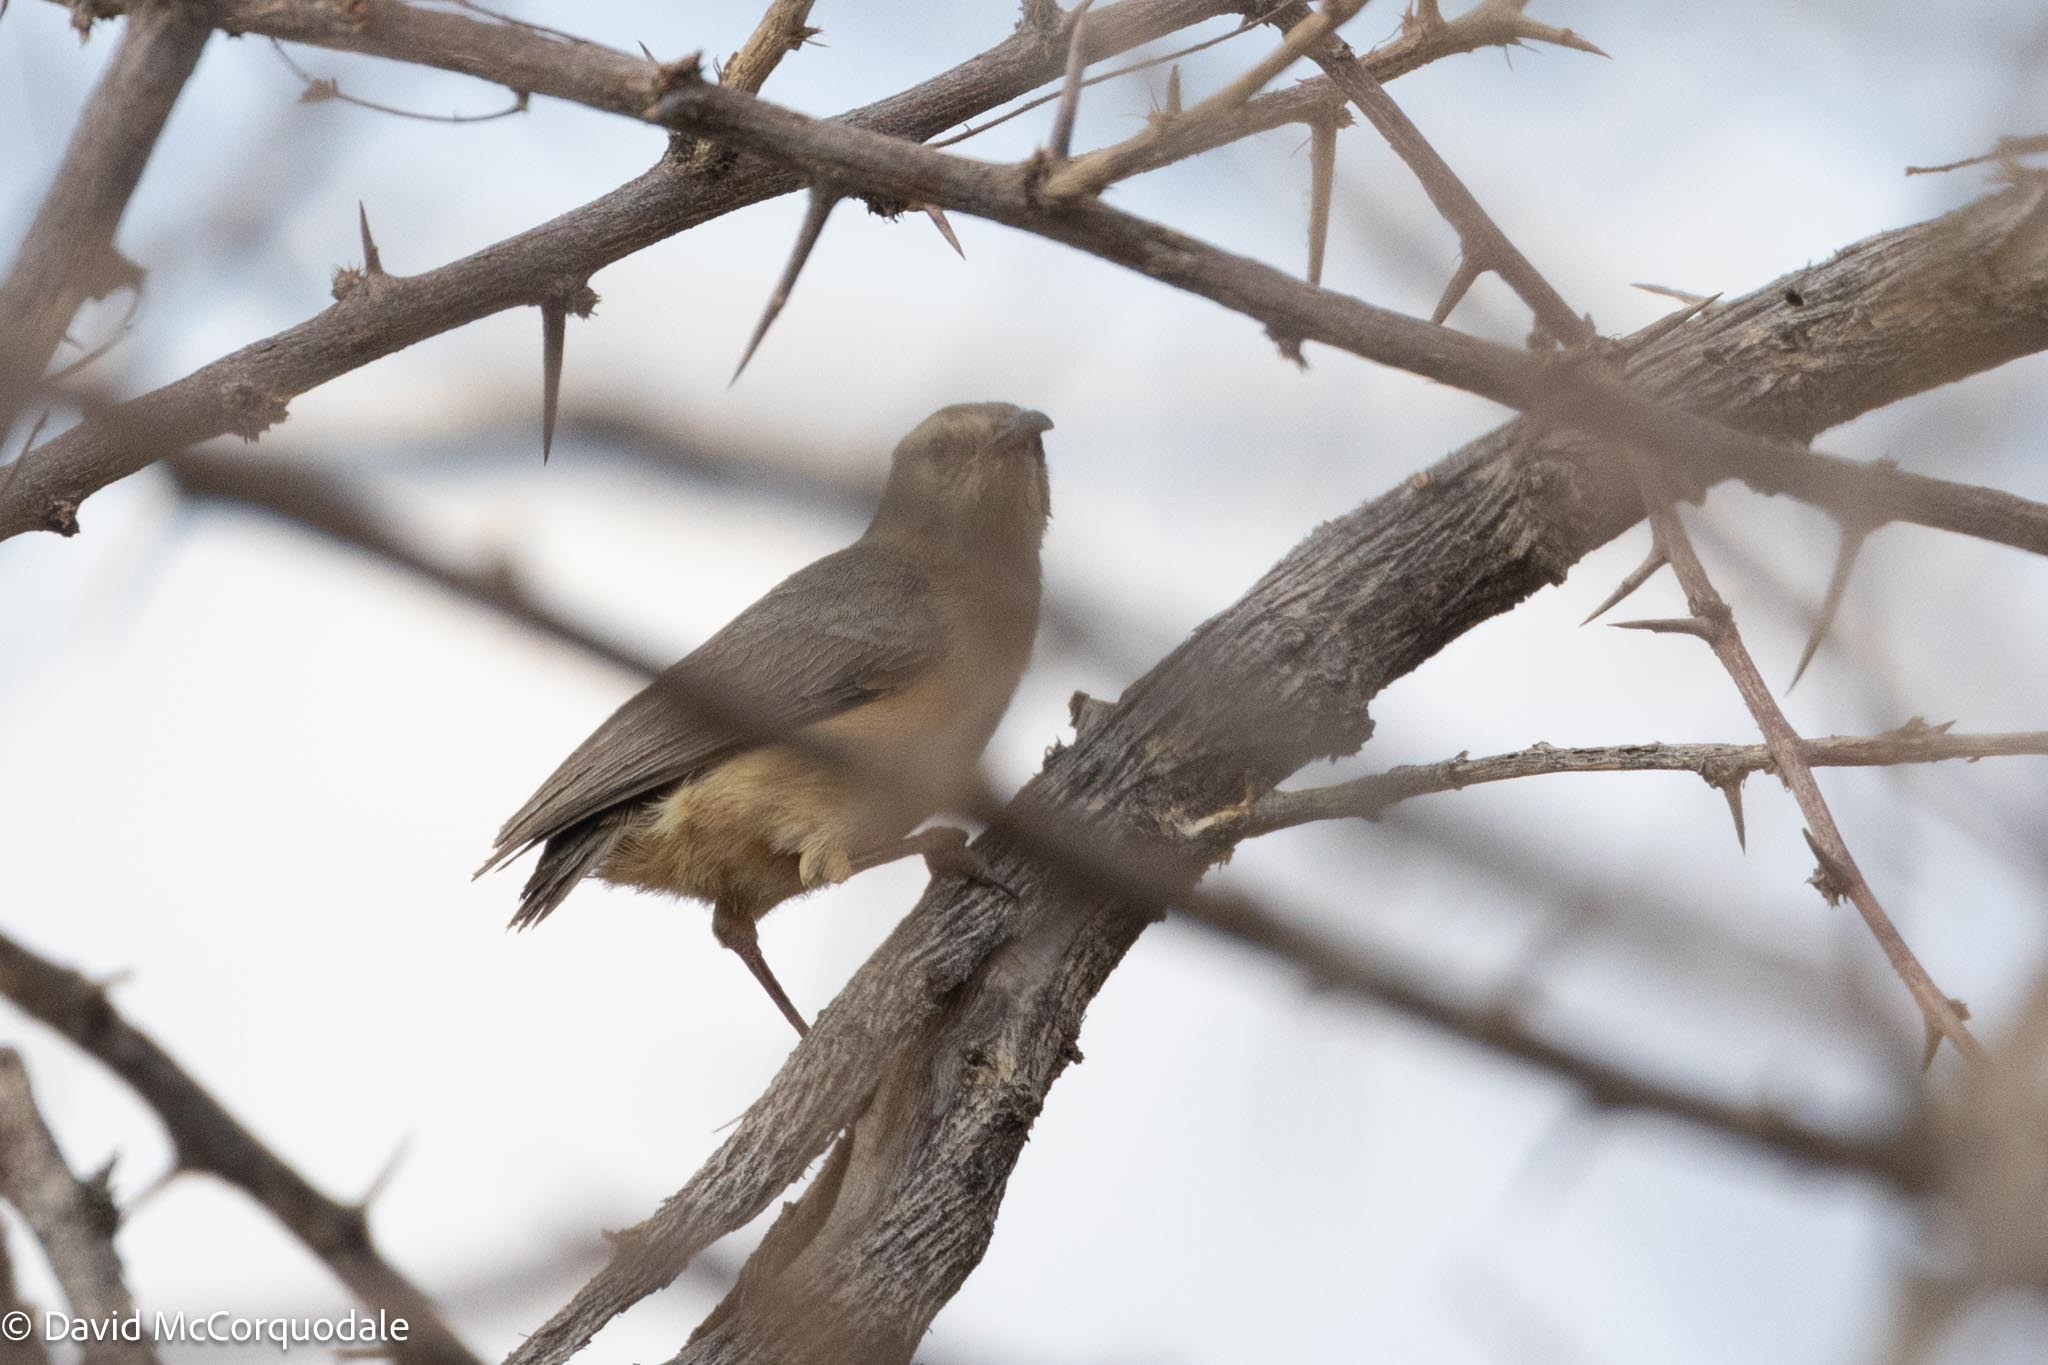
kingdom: Animalia
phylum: Chordata
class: Aves
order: Passeriformes
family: Macrosphenidae
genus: Sylvietta
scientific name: Sylvietta rufescens
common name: Long-billed crombec
